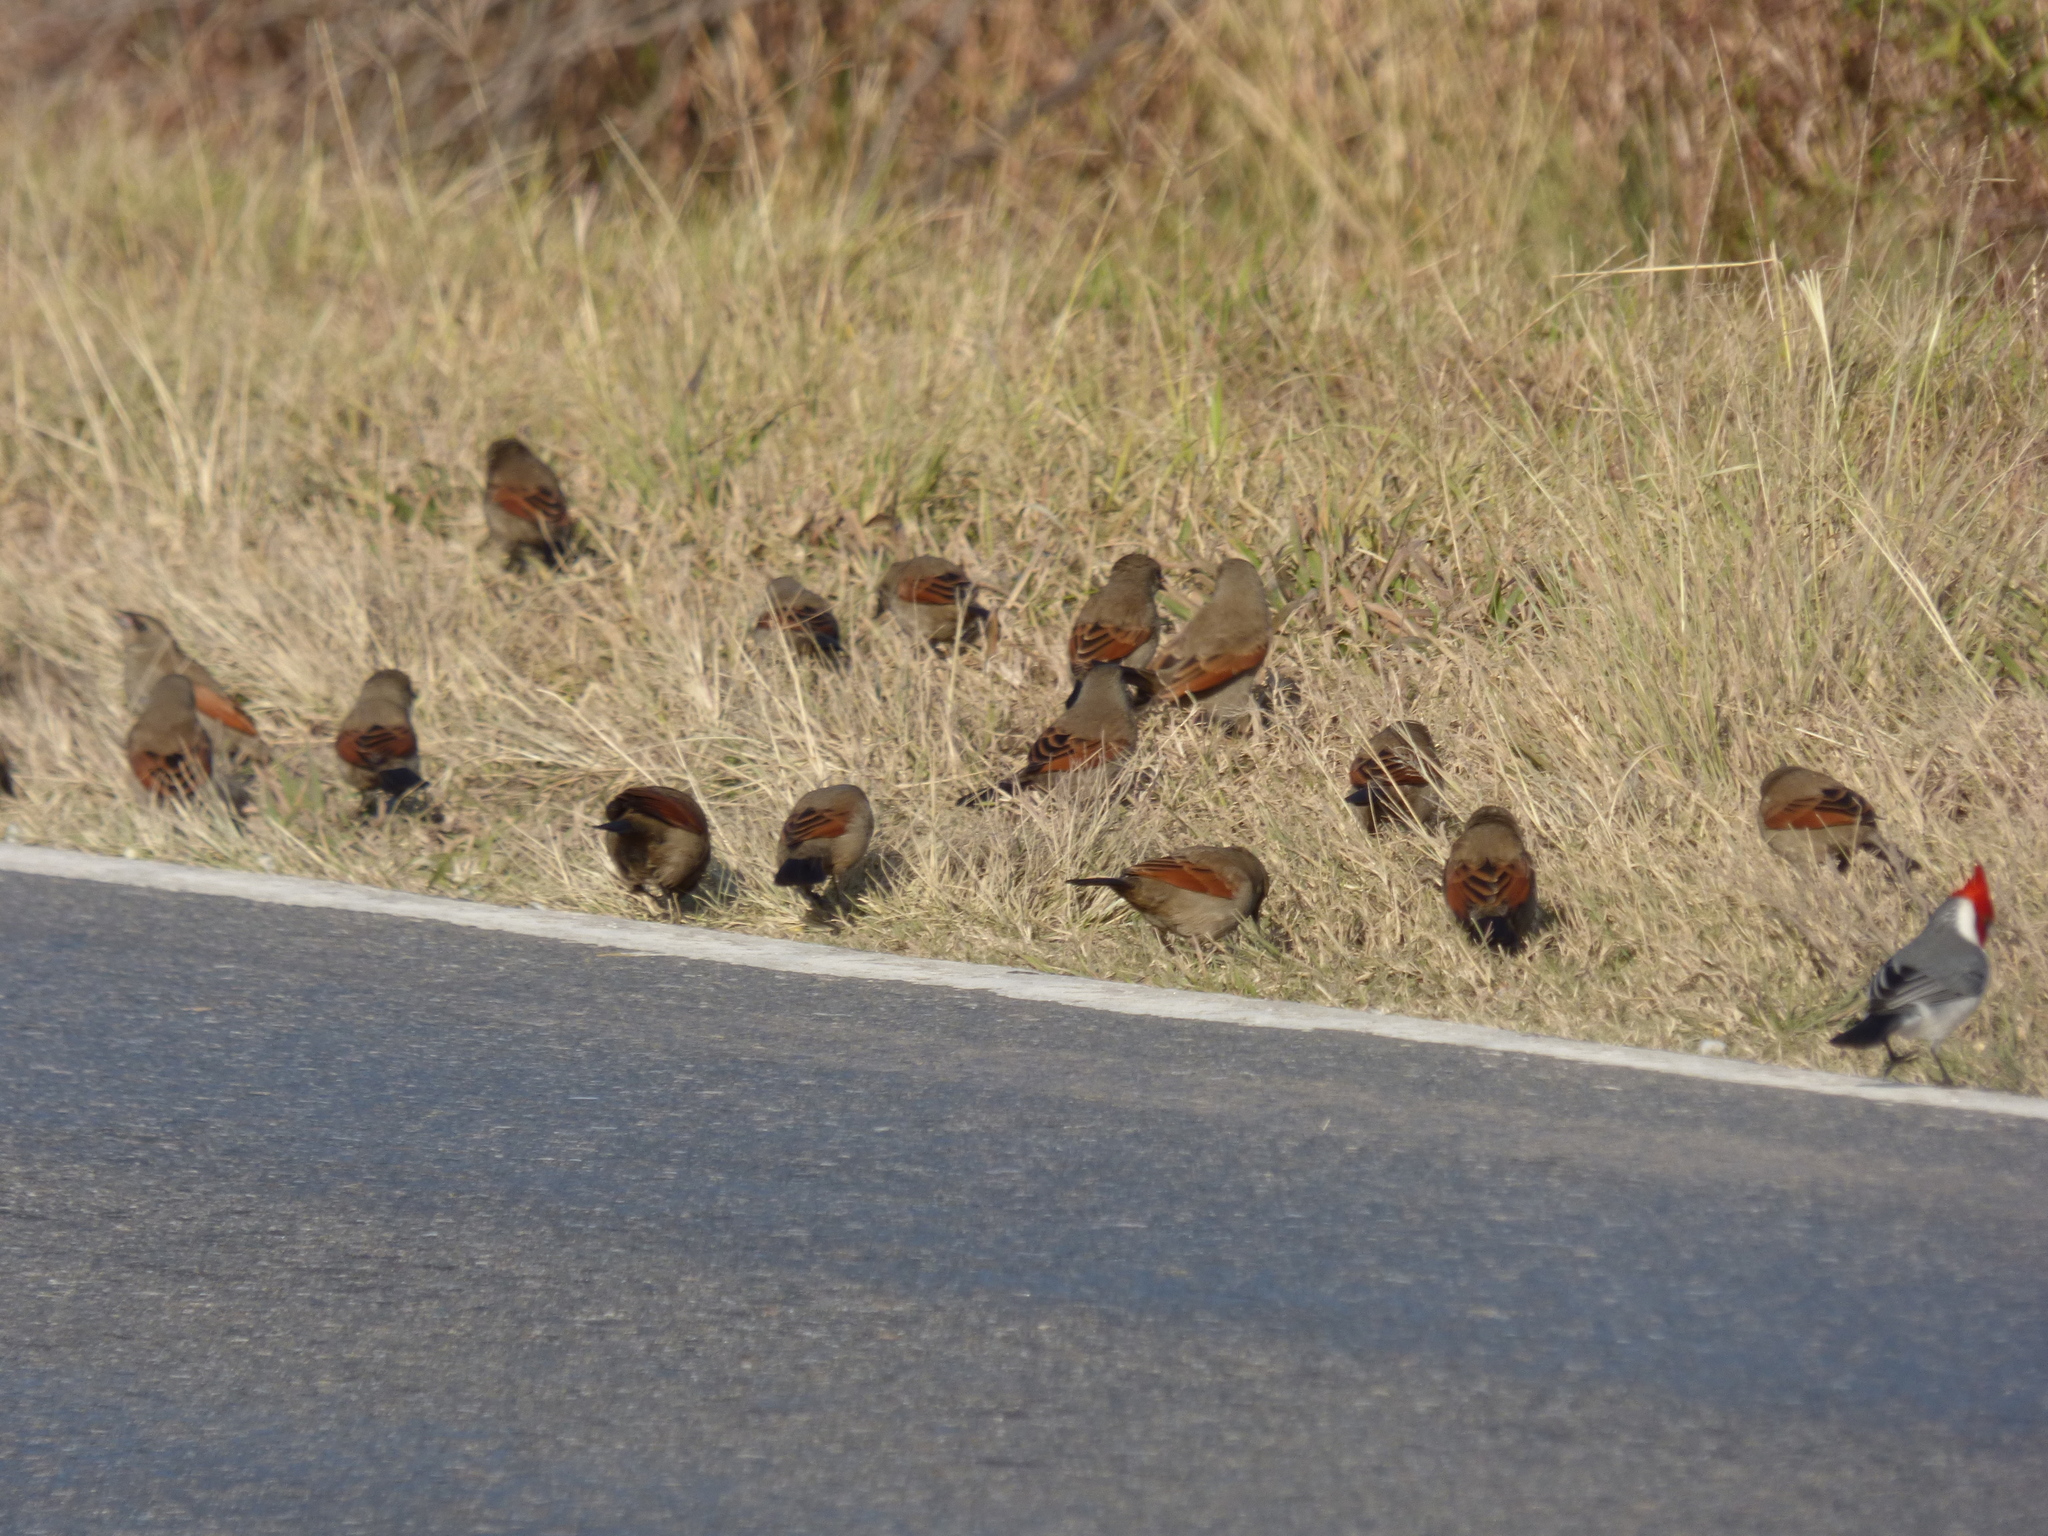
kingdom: Animalia
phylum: Chordata
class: Aves
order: Passeriformes
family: Icteridae
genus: Agelaioides
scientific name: Agelaioides badius
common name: Baywing
